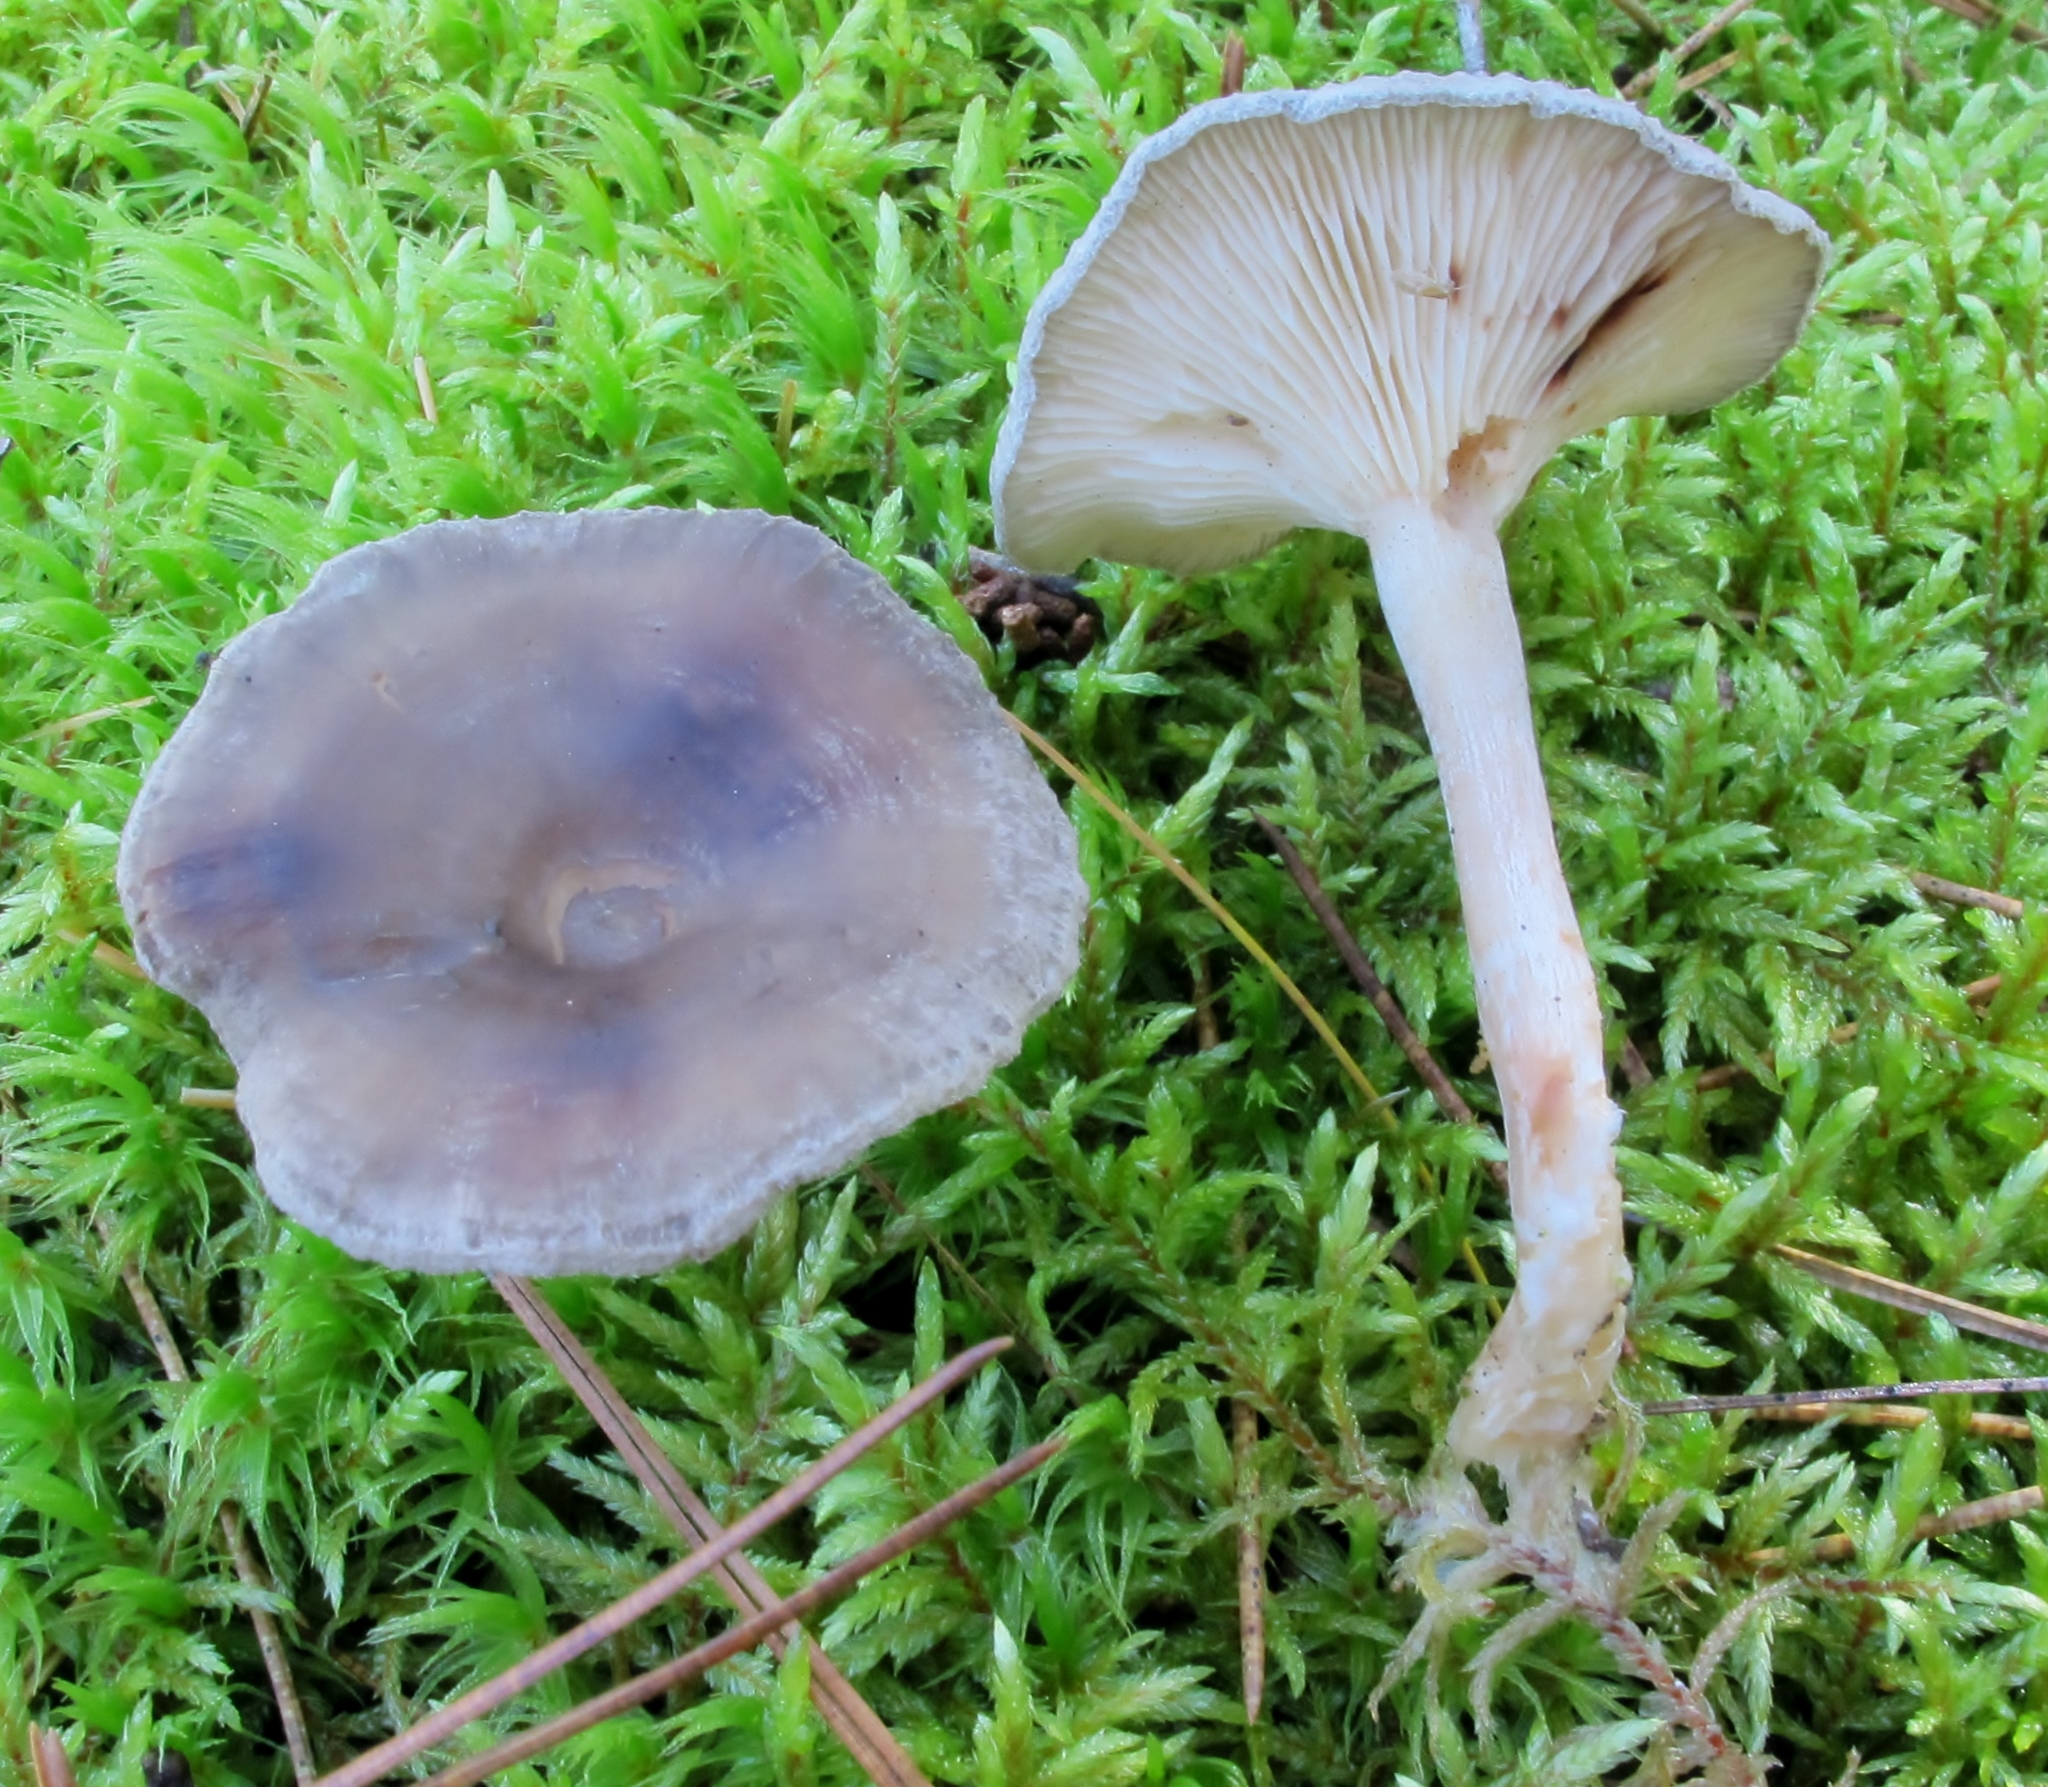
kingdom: Fungi
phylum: Basidiomycota
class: Agaricomycetes
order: Agaricales
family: Hygrophoraceae
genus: Cantharellula
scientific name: Cantharellula umbonata
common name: The humpback
